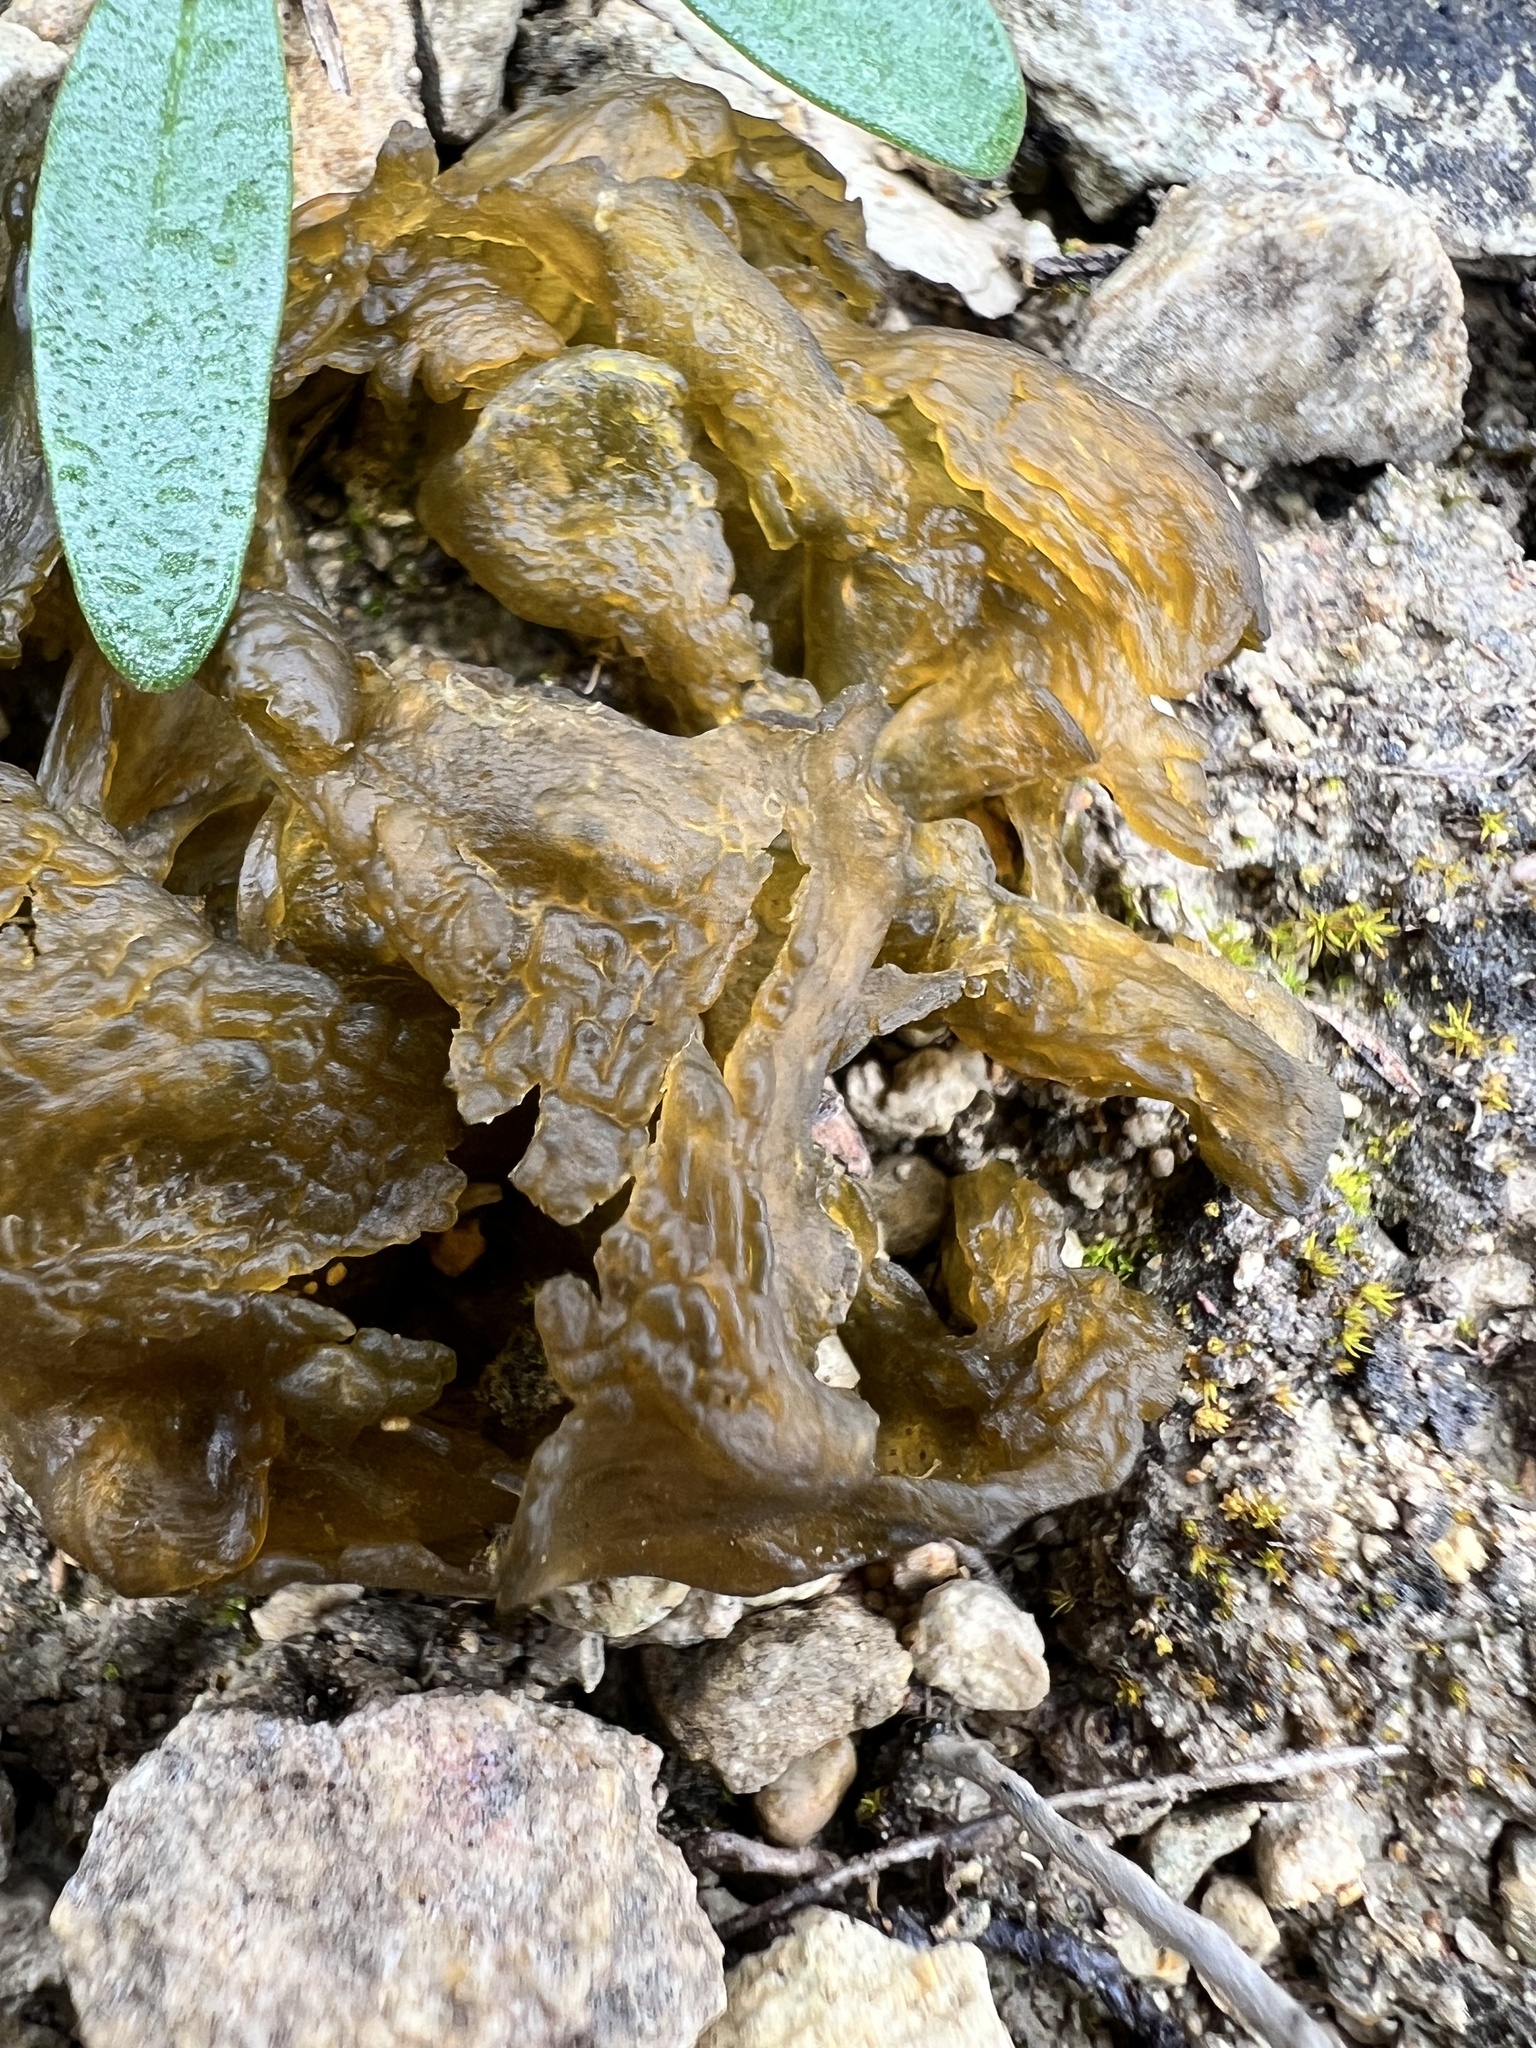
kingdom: Bacteria
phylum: Cyanobacteria
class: Cyanobacteriia
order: Cyanobacteriales
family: Nostocaceae
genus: Nostoc
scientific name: Nostoc commune
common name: Star jelly
